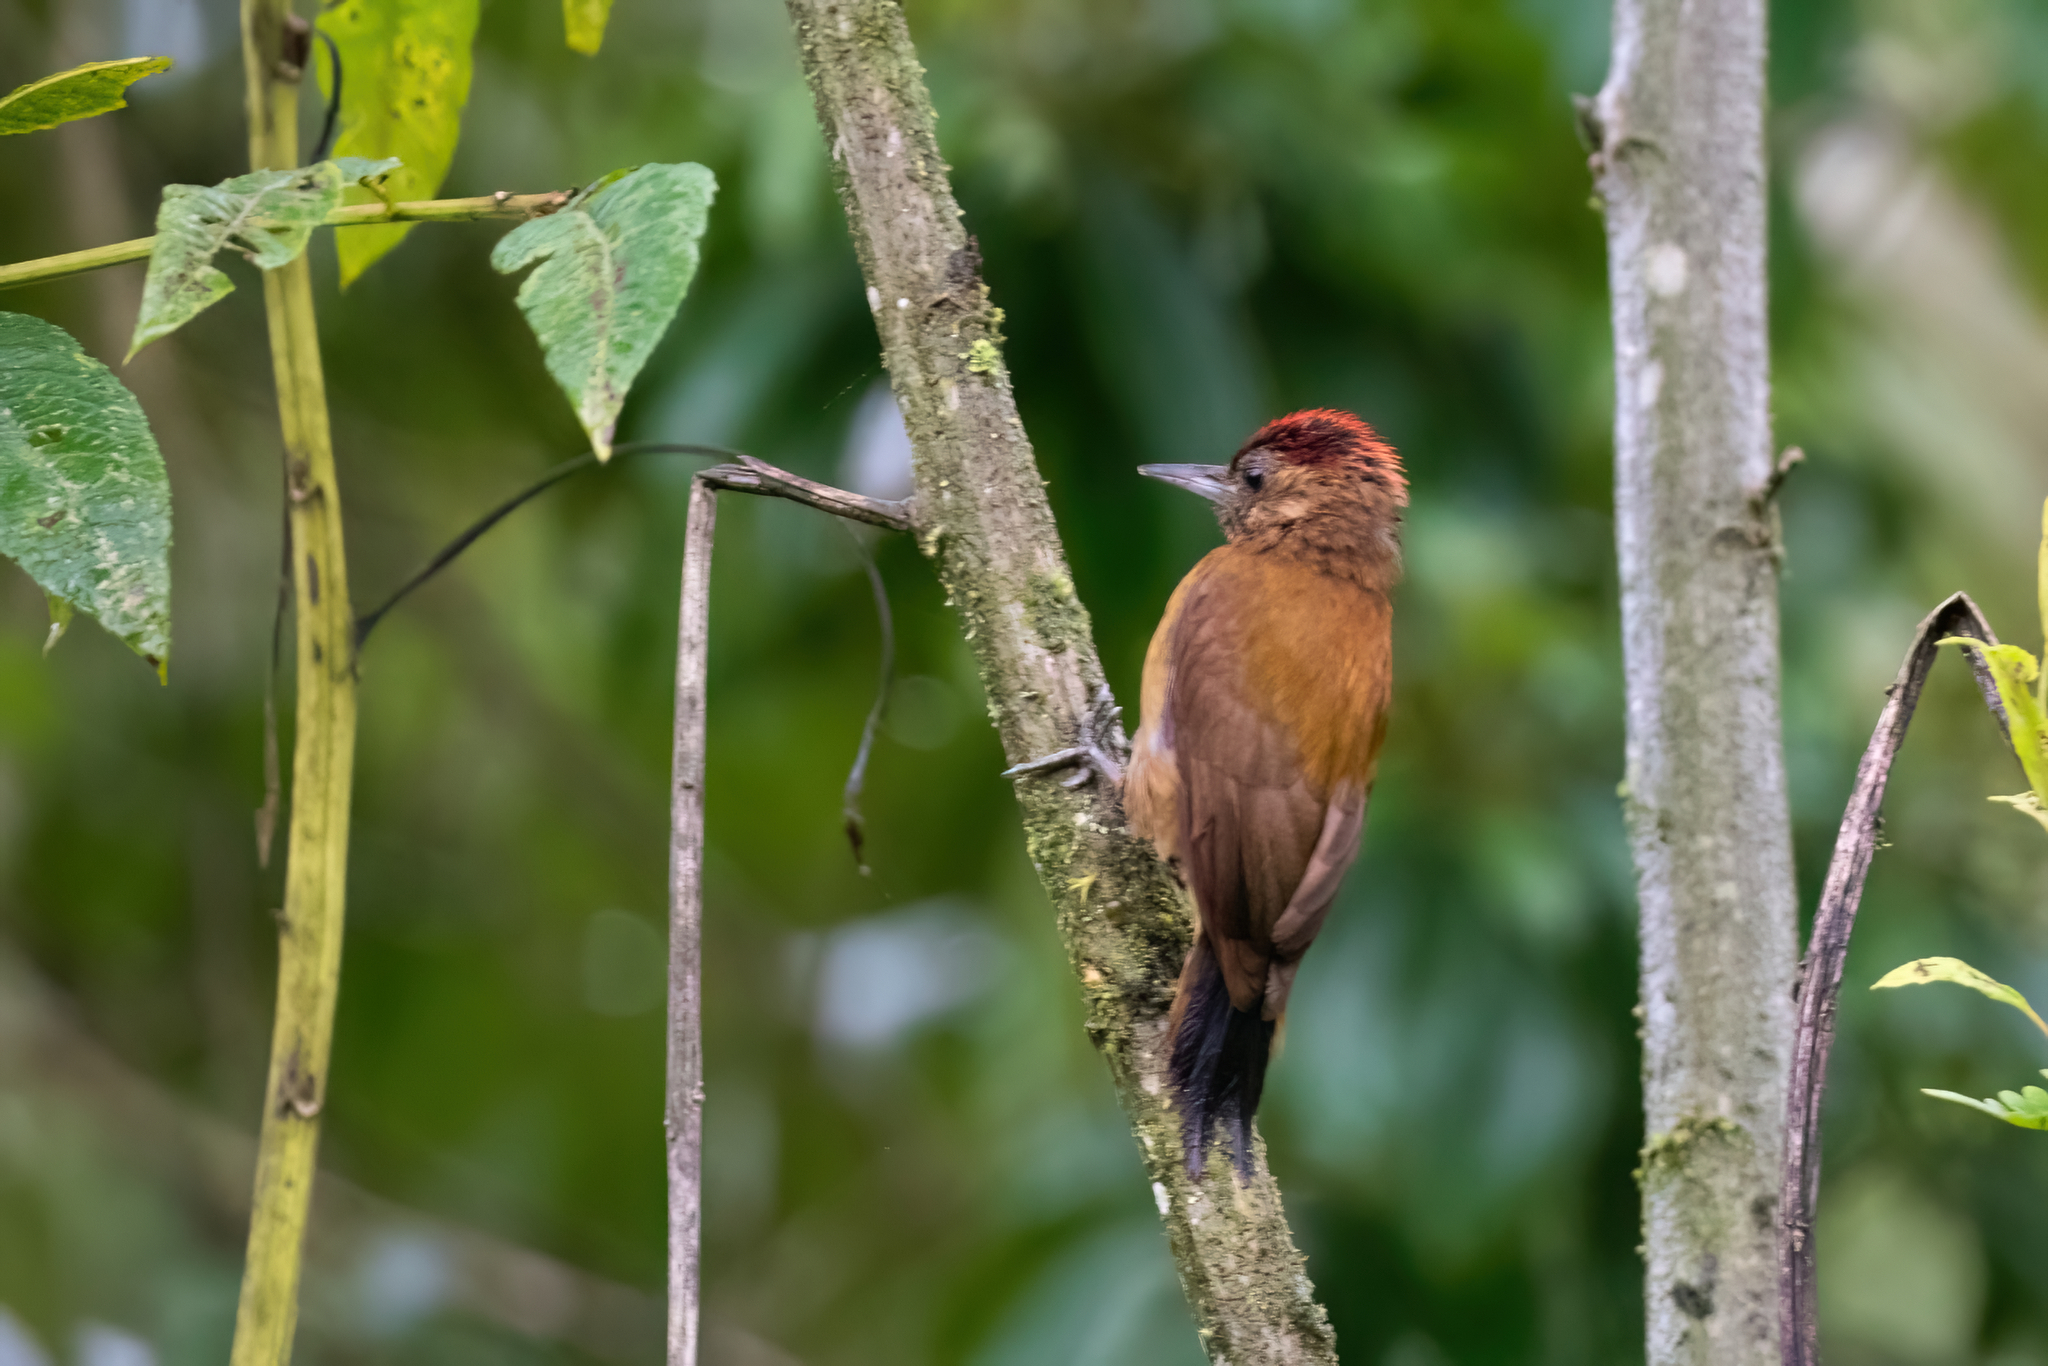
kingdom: Animalia
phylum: Chordata
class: Aves
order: Piciformes
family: Picidae
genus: Leuconotopicus
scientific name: Leuconotopicus fumigatus
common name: Smoky-brown woodpecker
